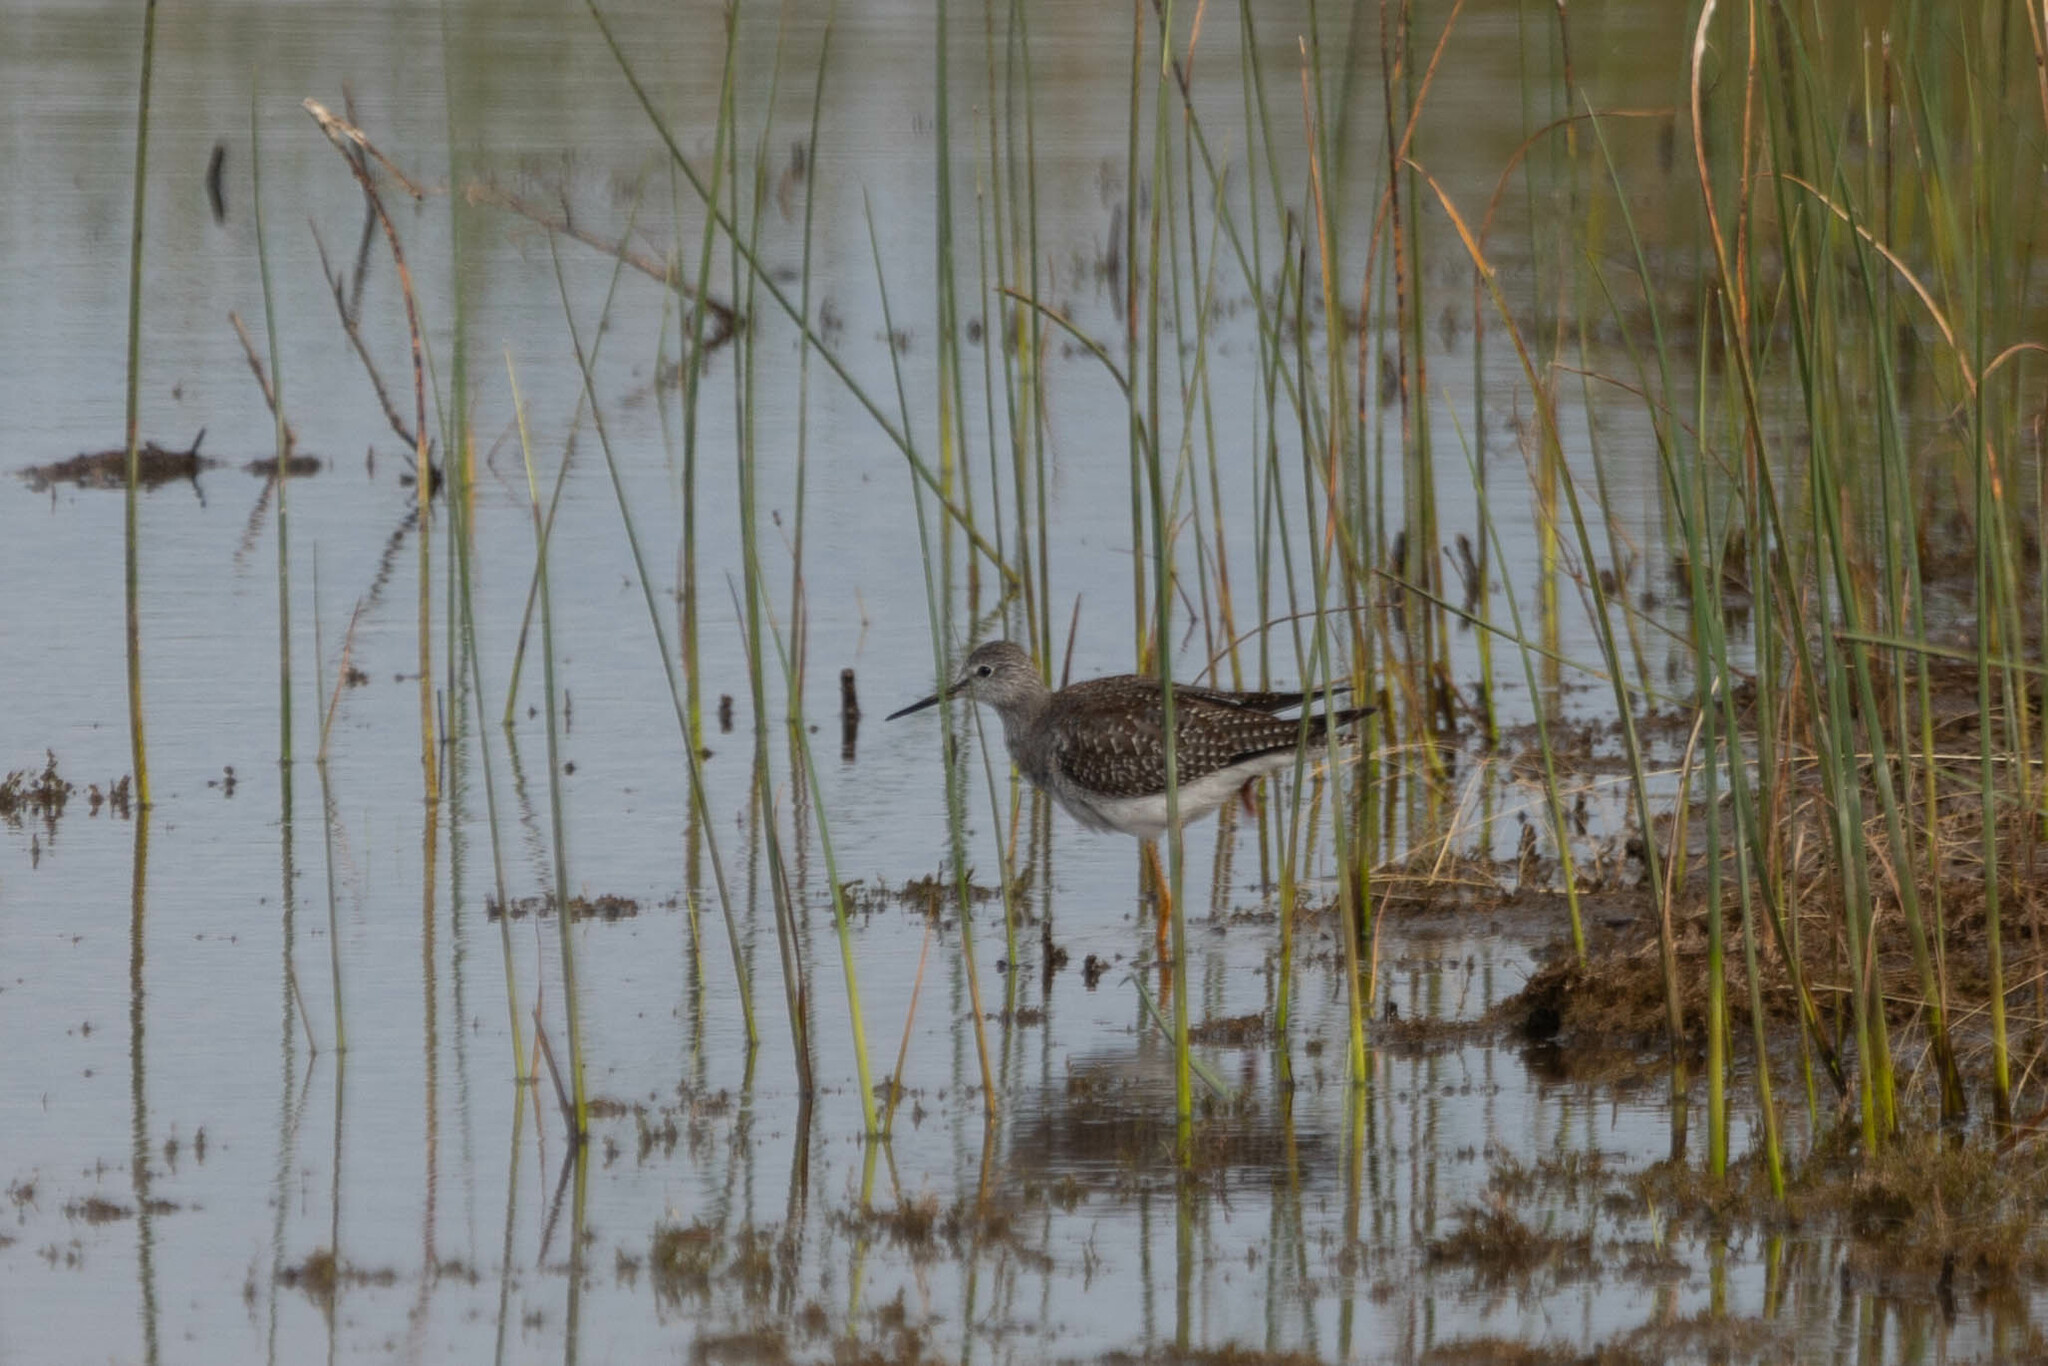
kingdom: Animalia
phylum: Chordata
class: Aves
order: Charadriiformes
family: Scolopacidae
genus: Tringa
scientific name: Tringa melanoleuca
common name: Greater yellowlegs
